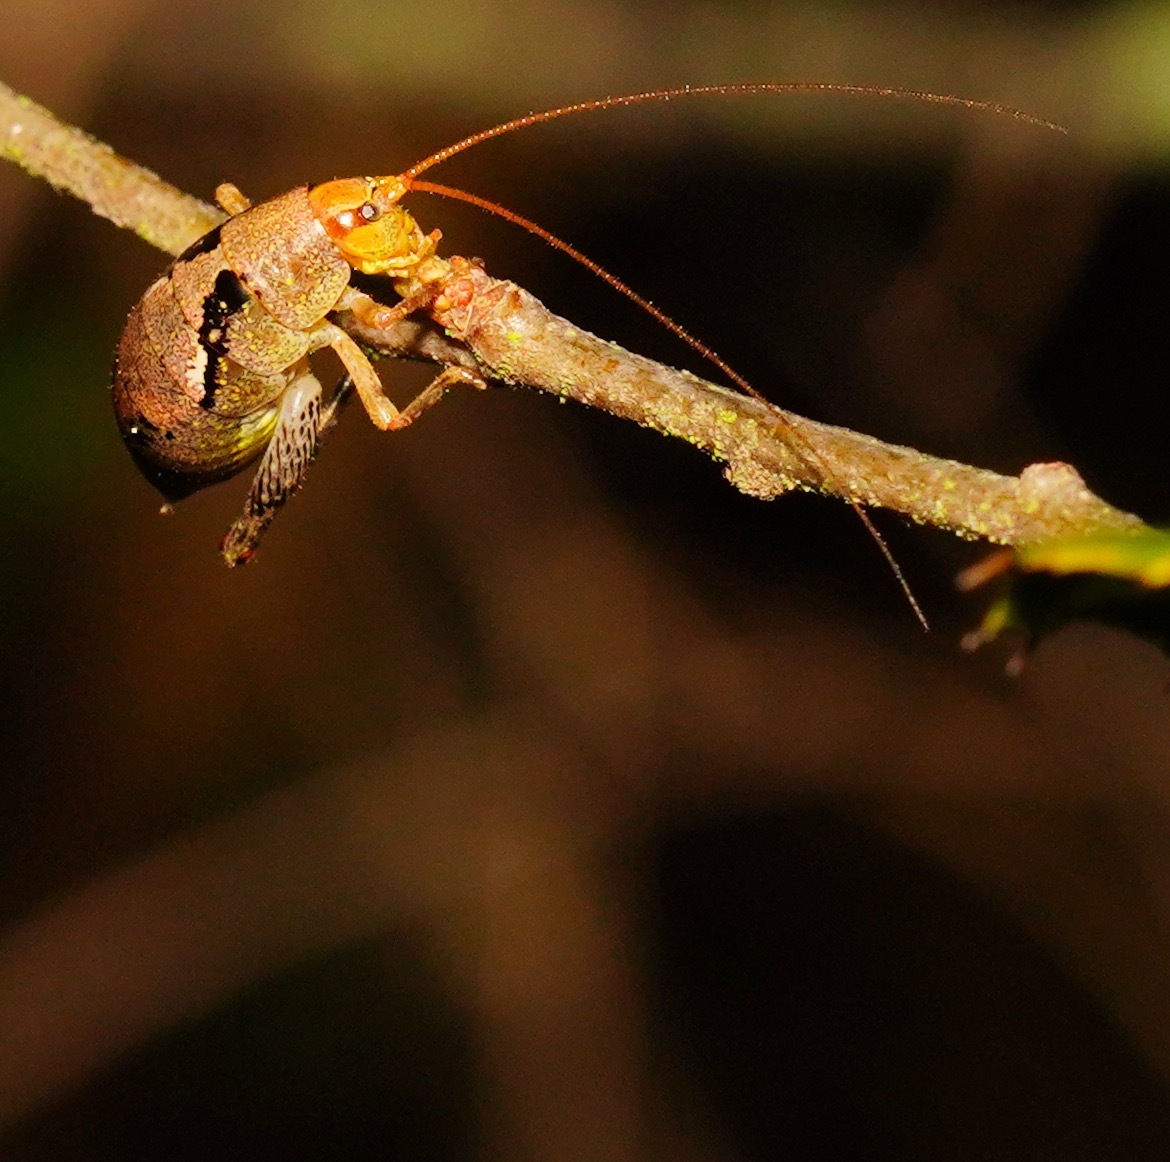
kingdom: Animalia
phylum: Arthropoda
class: Insecta
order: Orthoptera
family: Rhaphidophoridae
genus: Gammarotettix
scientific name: Gammarotettix bilobatus
